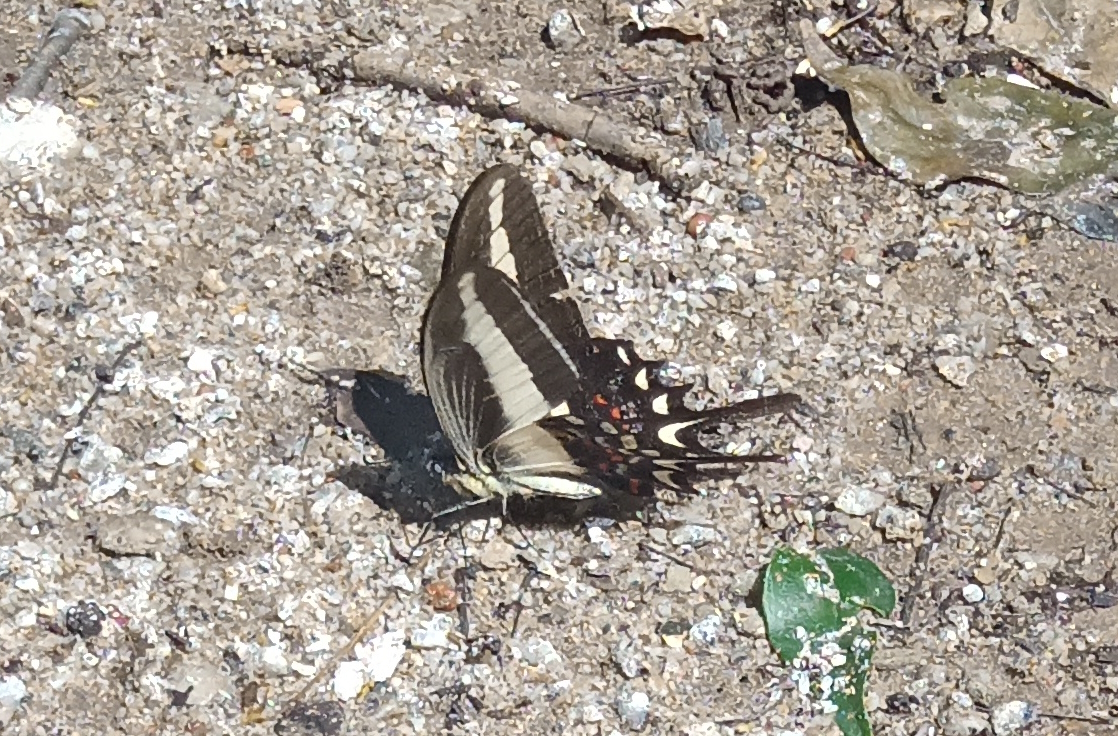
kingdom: Animalia
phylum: Arthropoda
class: Insecta
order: Lepidoptera
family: Papilionidae
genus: Heraclides
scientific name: Heraclides hectorides
